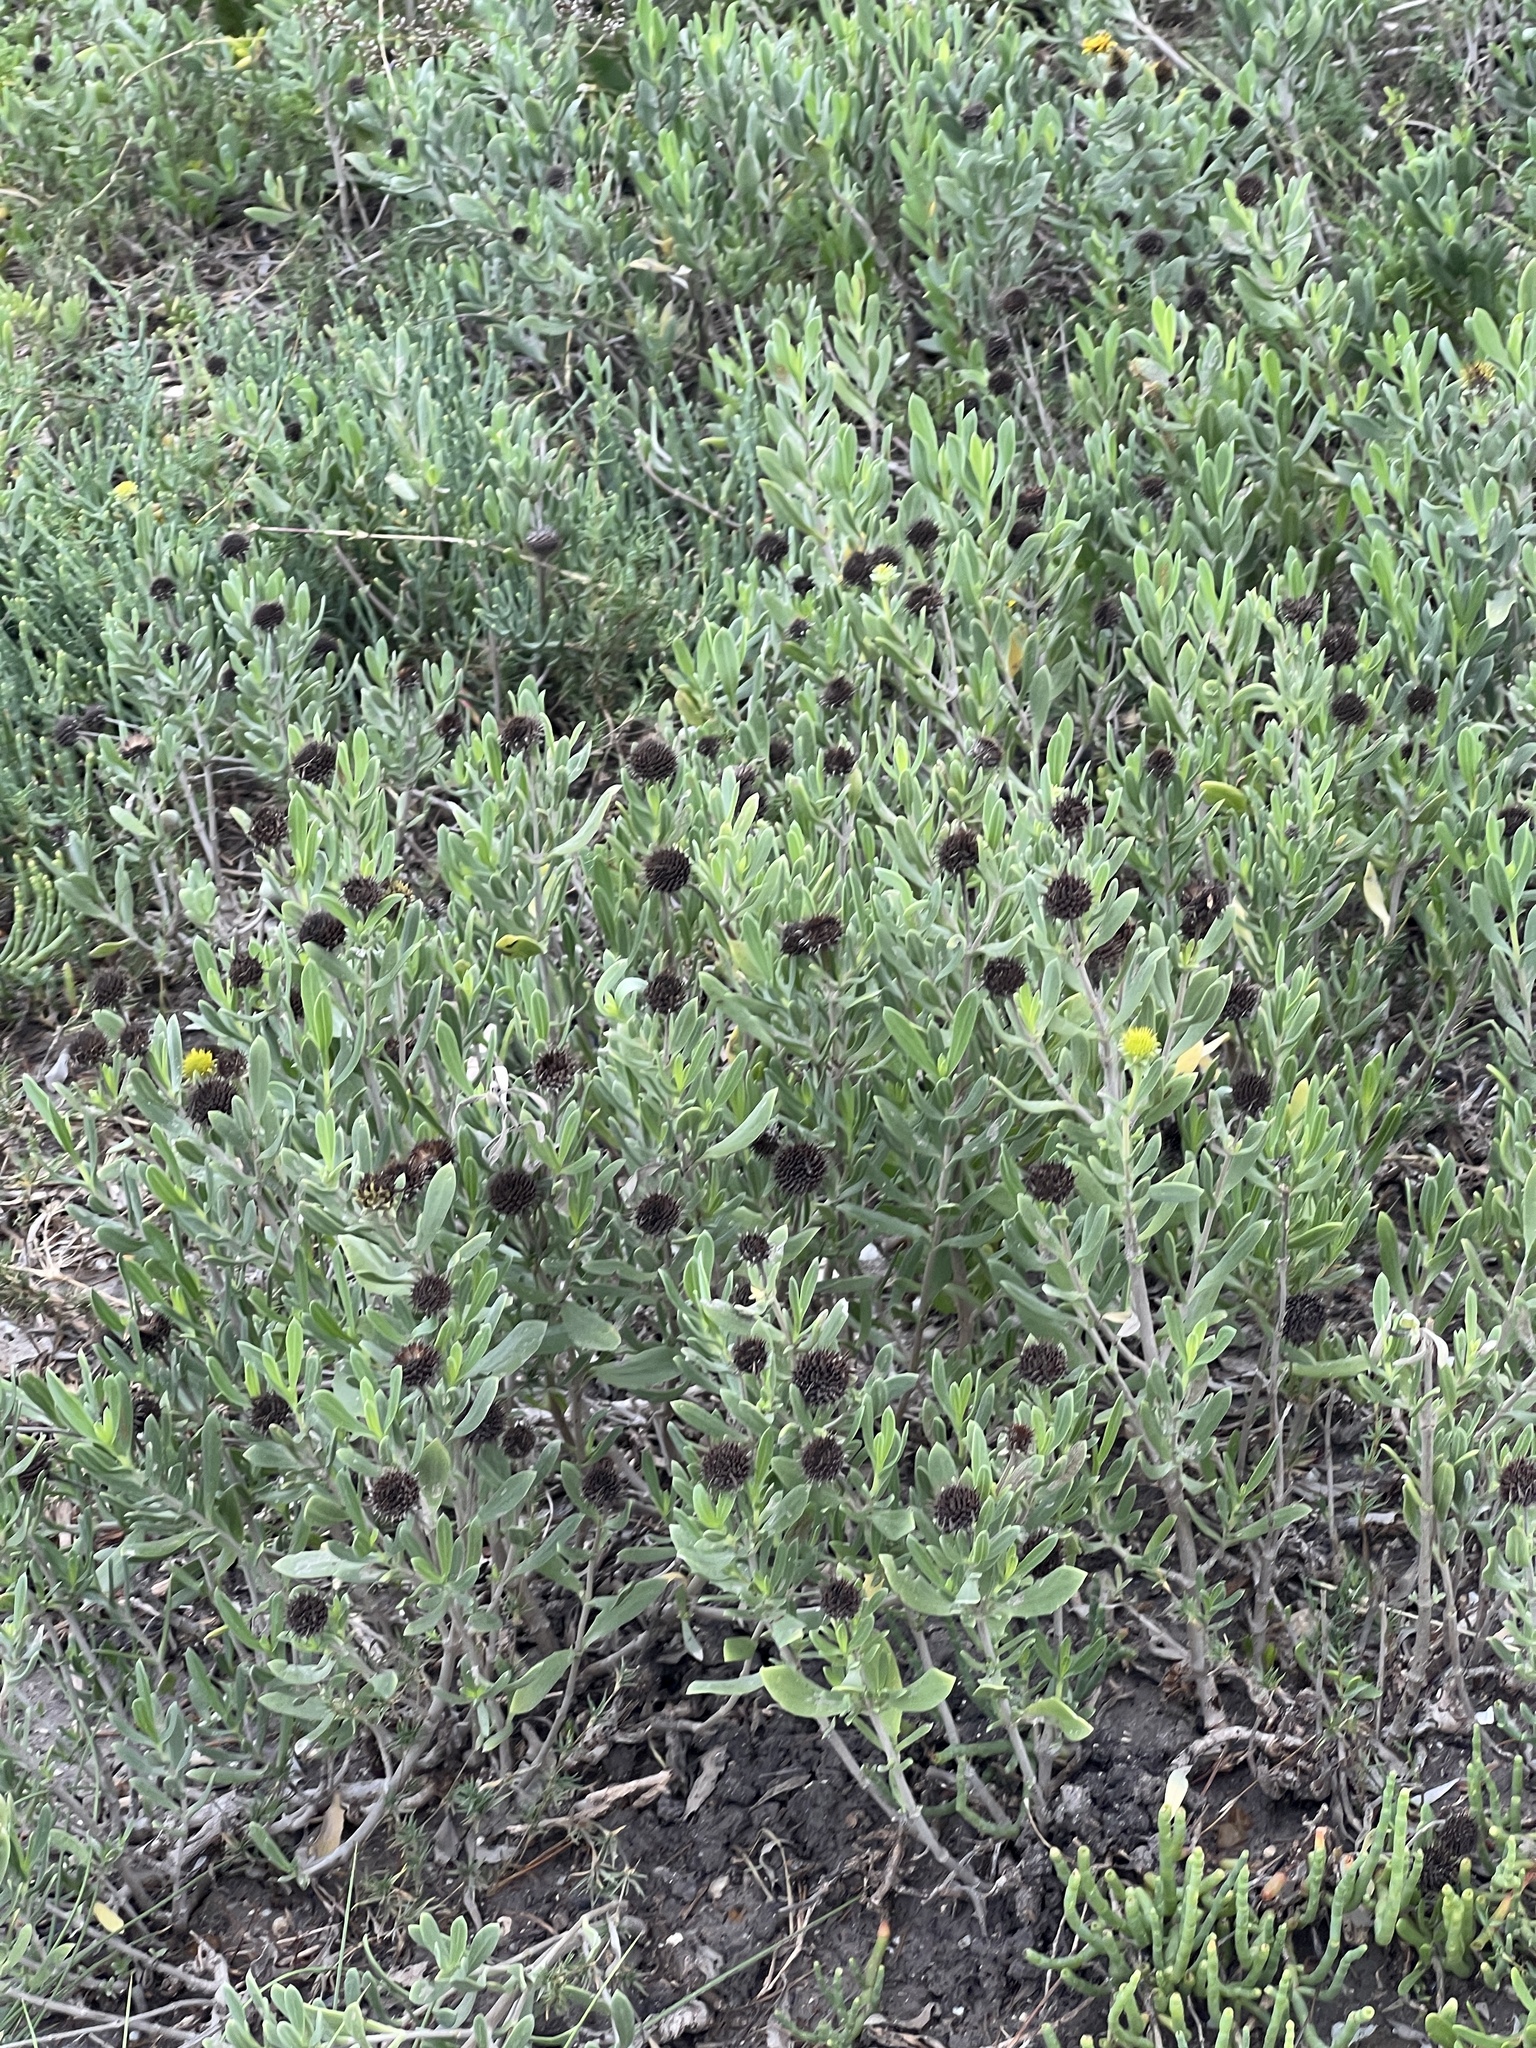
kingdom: Plantae
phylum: Tracheophyta
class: Magnoliopsida
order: Asterales
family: Asteraceae
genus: Borrichia
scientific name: Borrichia frutescens
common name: Sea oxeye
